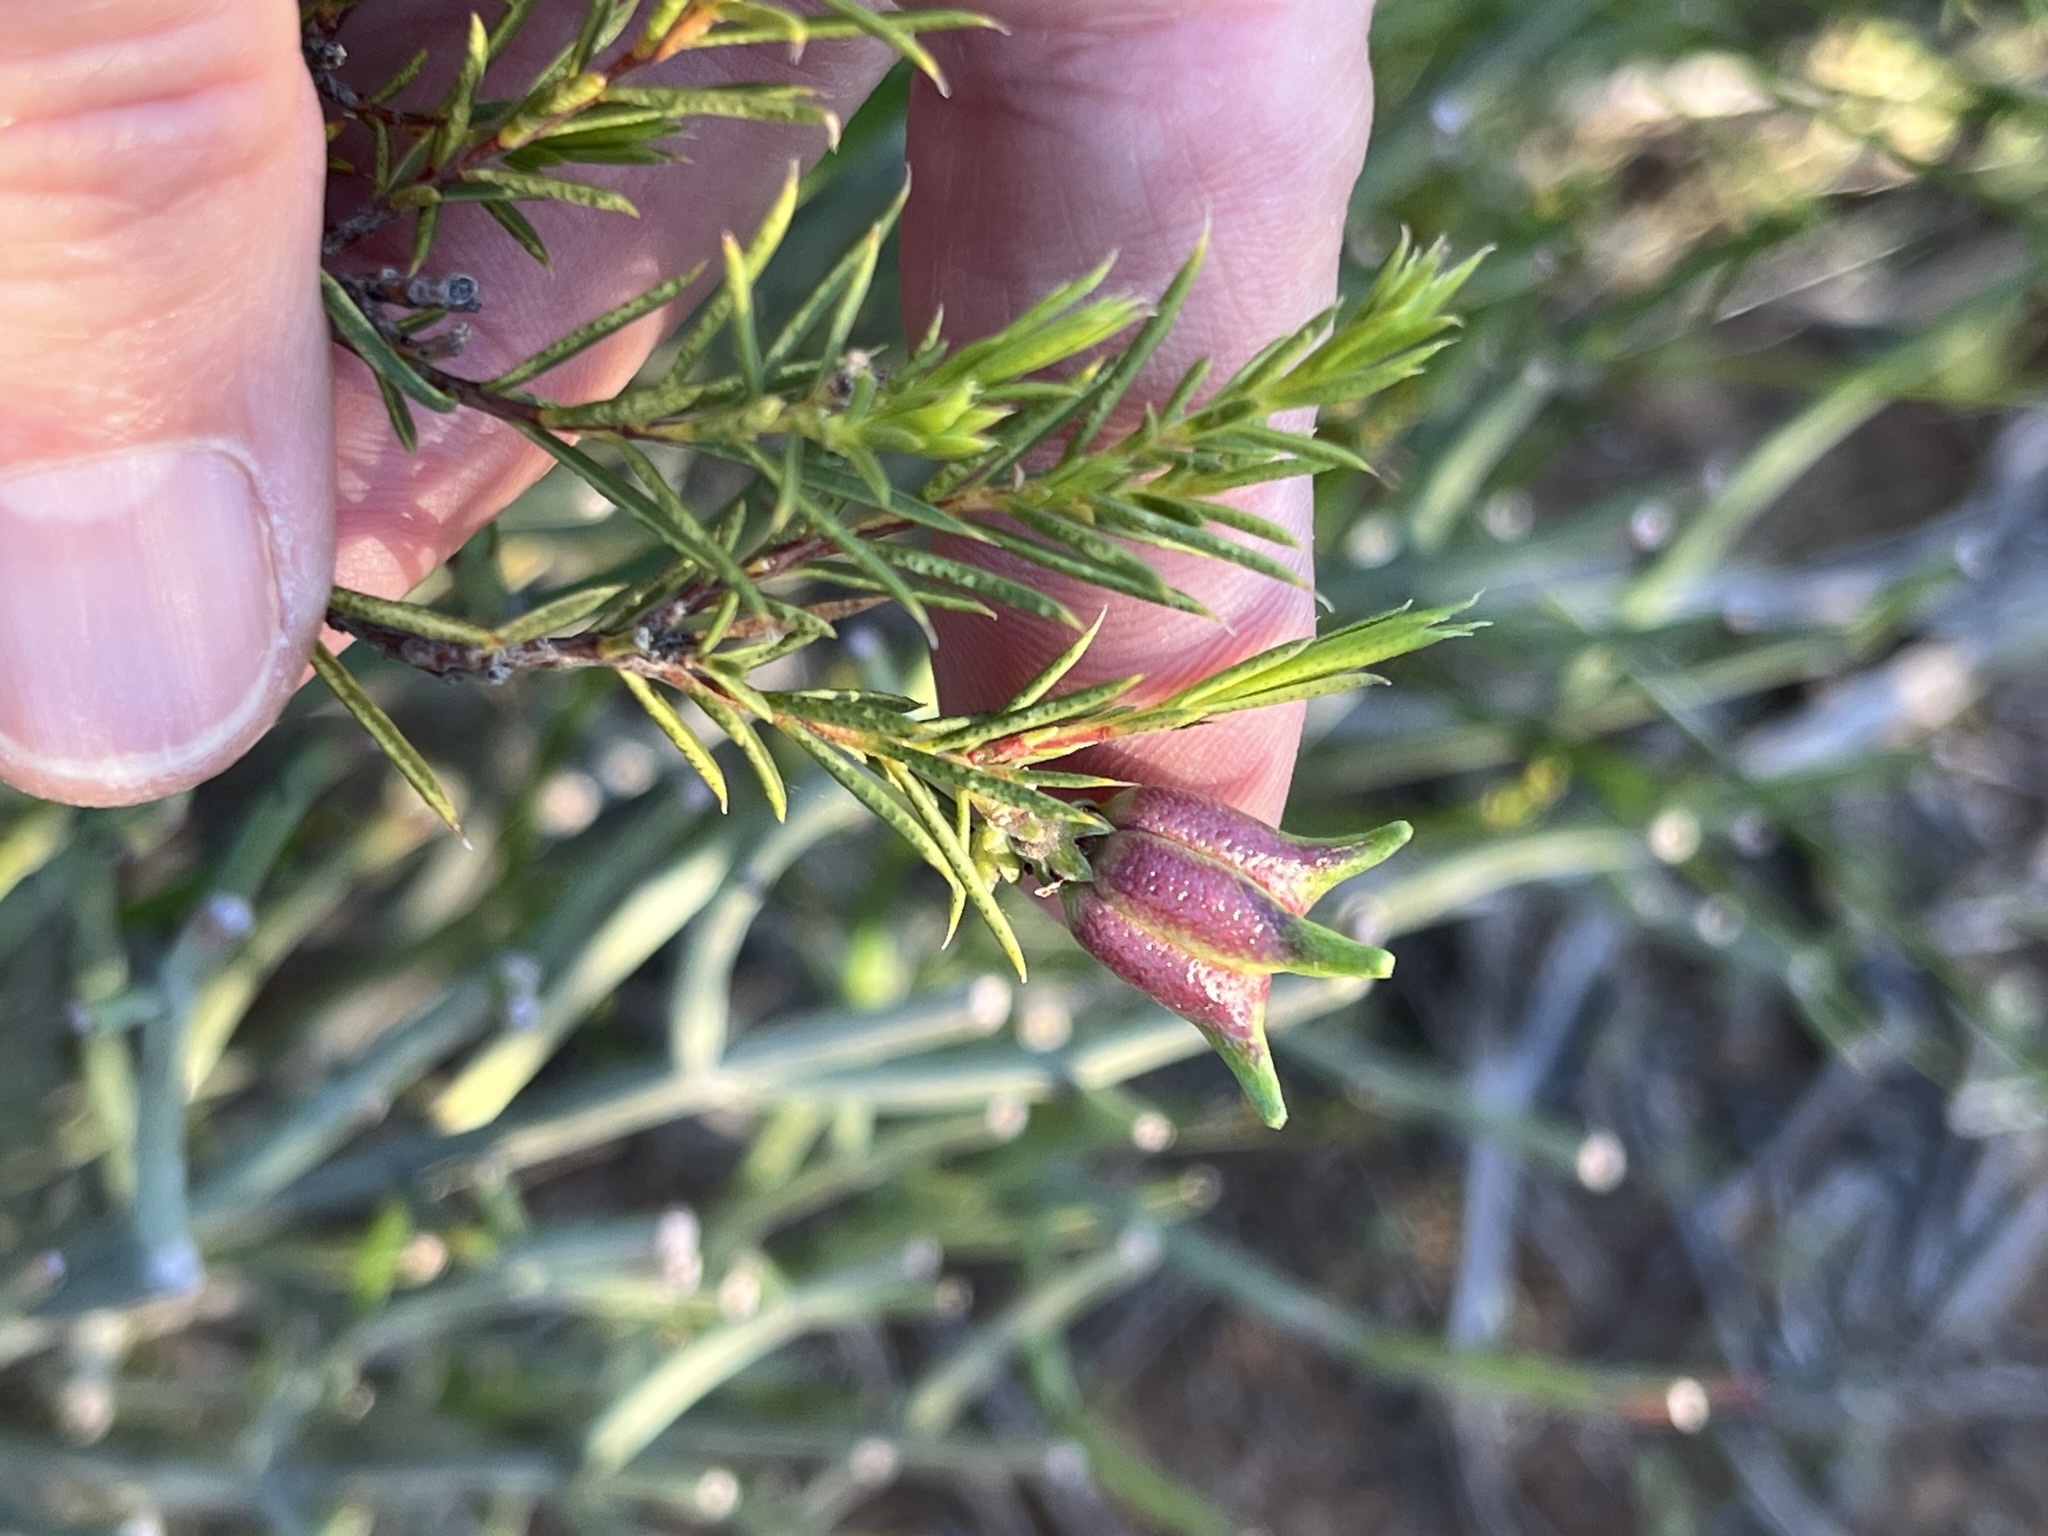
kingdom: Plantae
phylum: Tracheophyta
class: Magnoliopsida
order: Sapindales
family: Rutaceae
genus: Diosma
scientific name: Diosma acmaeophylla
